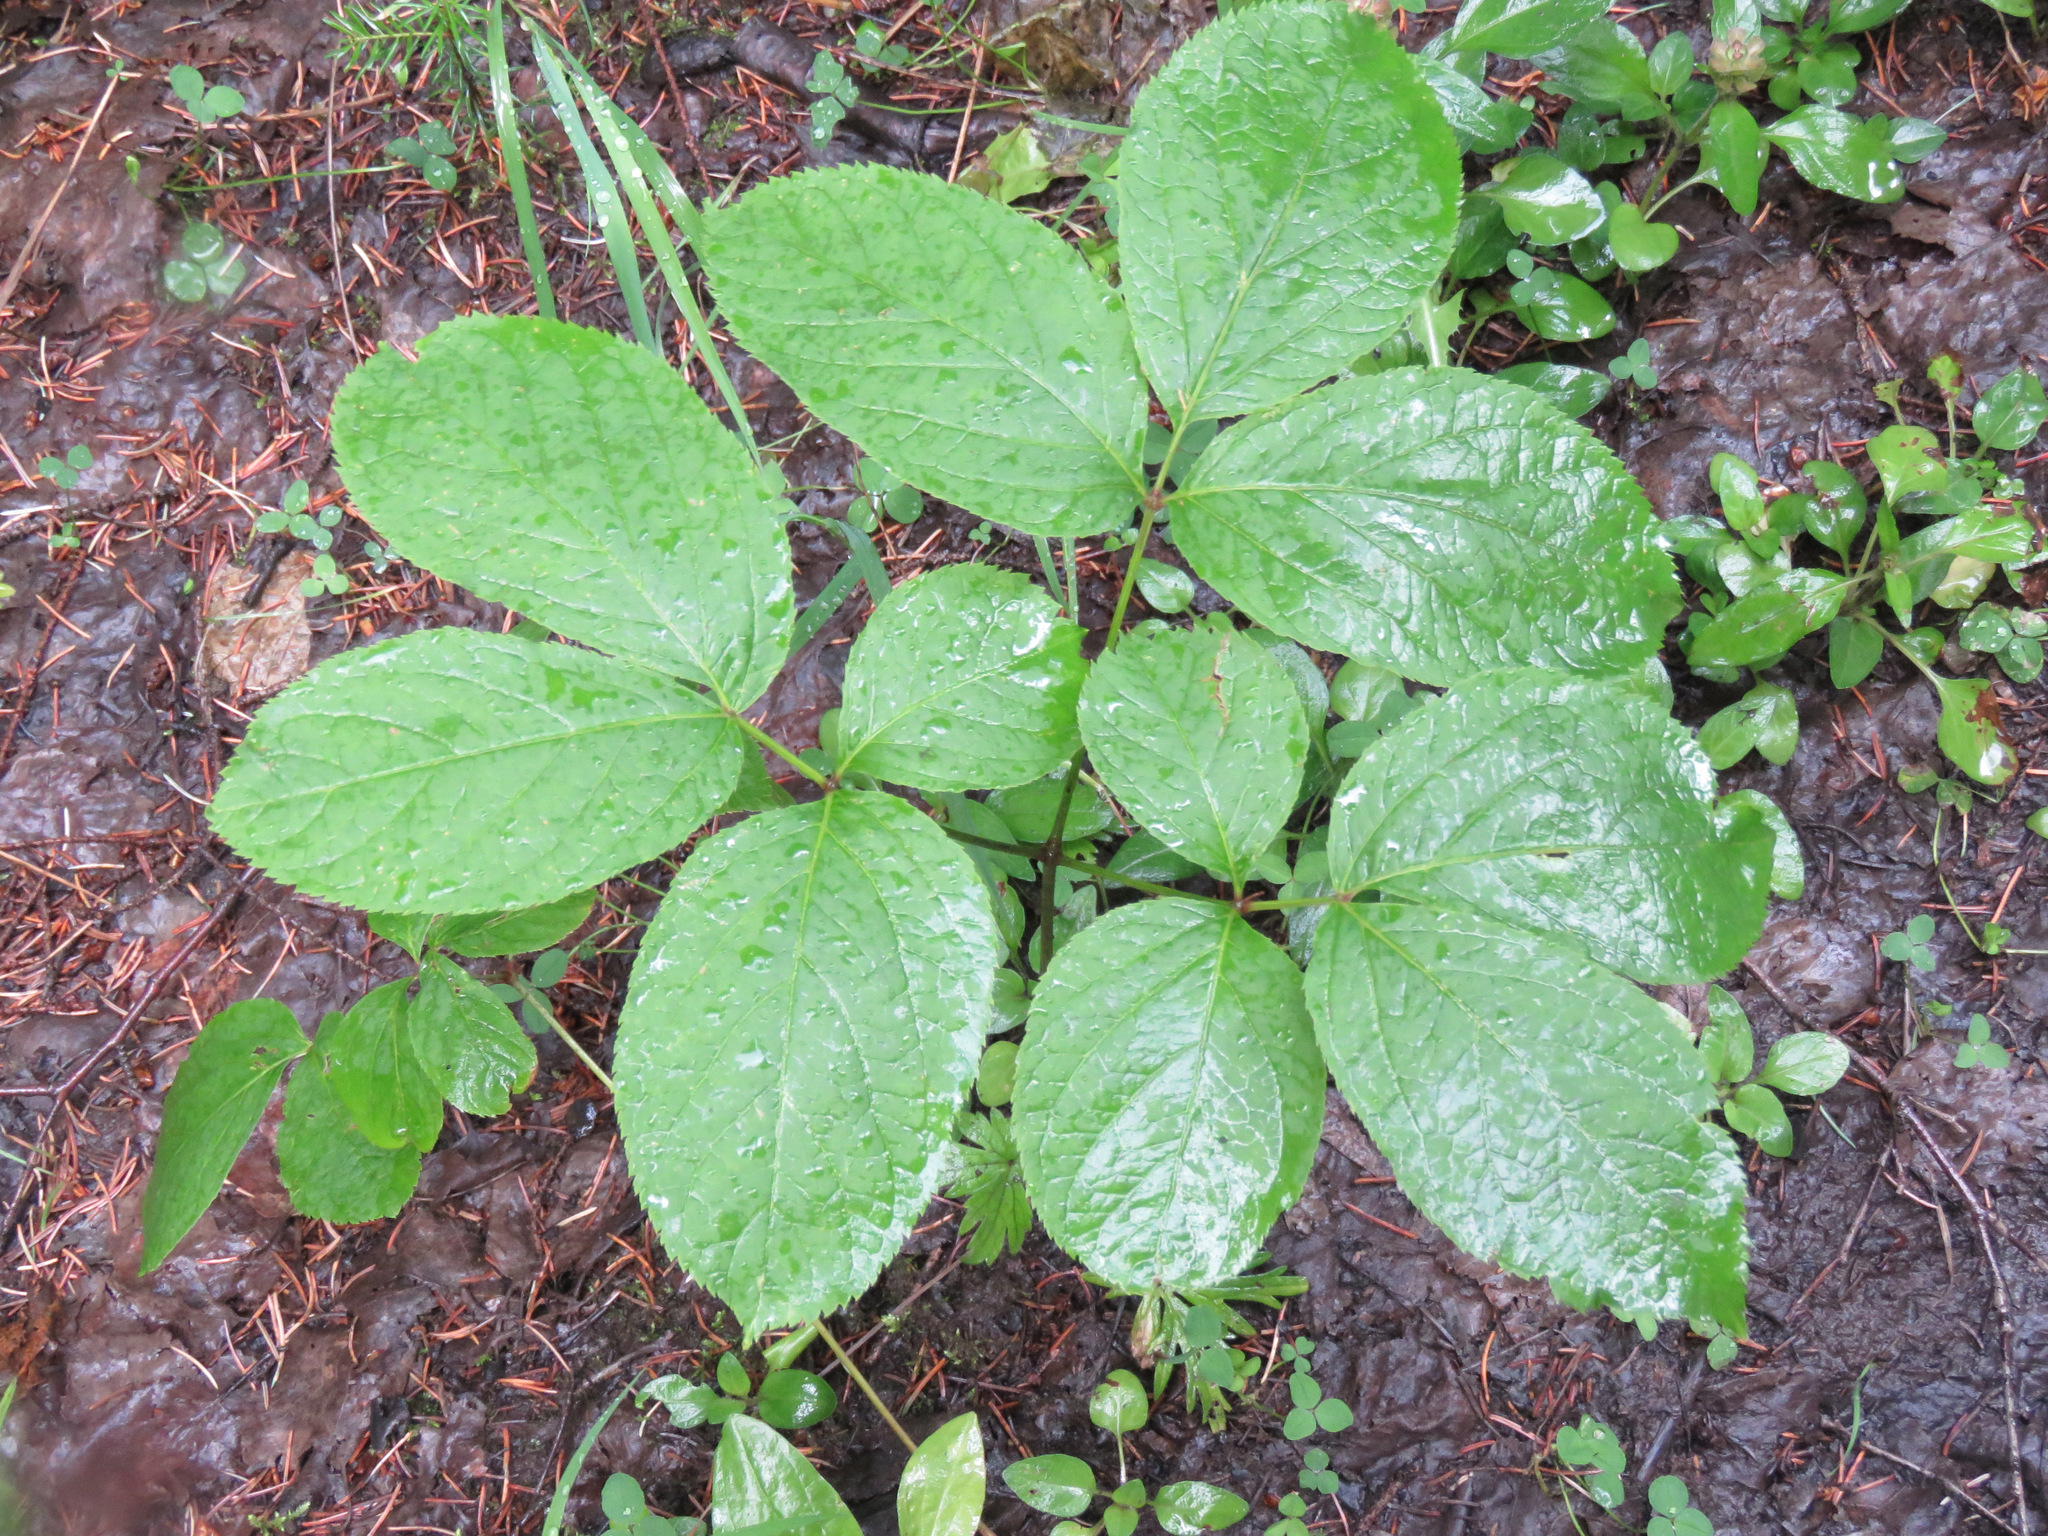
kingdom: Plantae
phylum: Tracheophyta
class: Magnoliopsida
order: Apiales
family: Araliaceae
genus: Aralia
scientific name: Aralia nudicaulis
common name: Wild sarsaparilla
